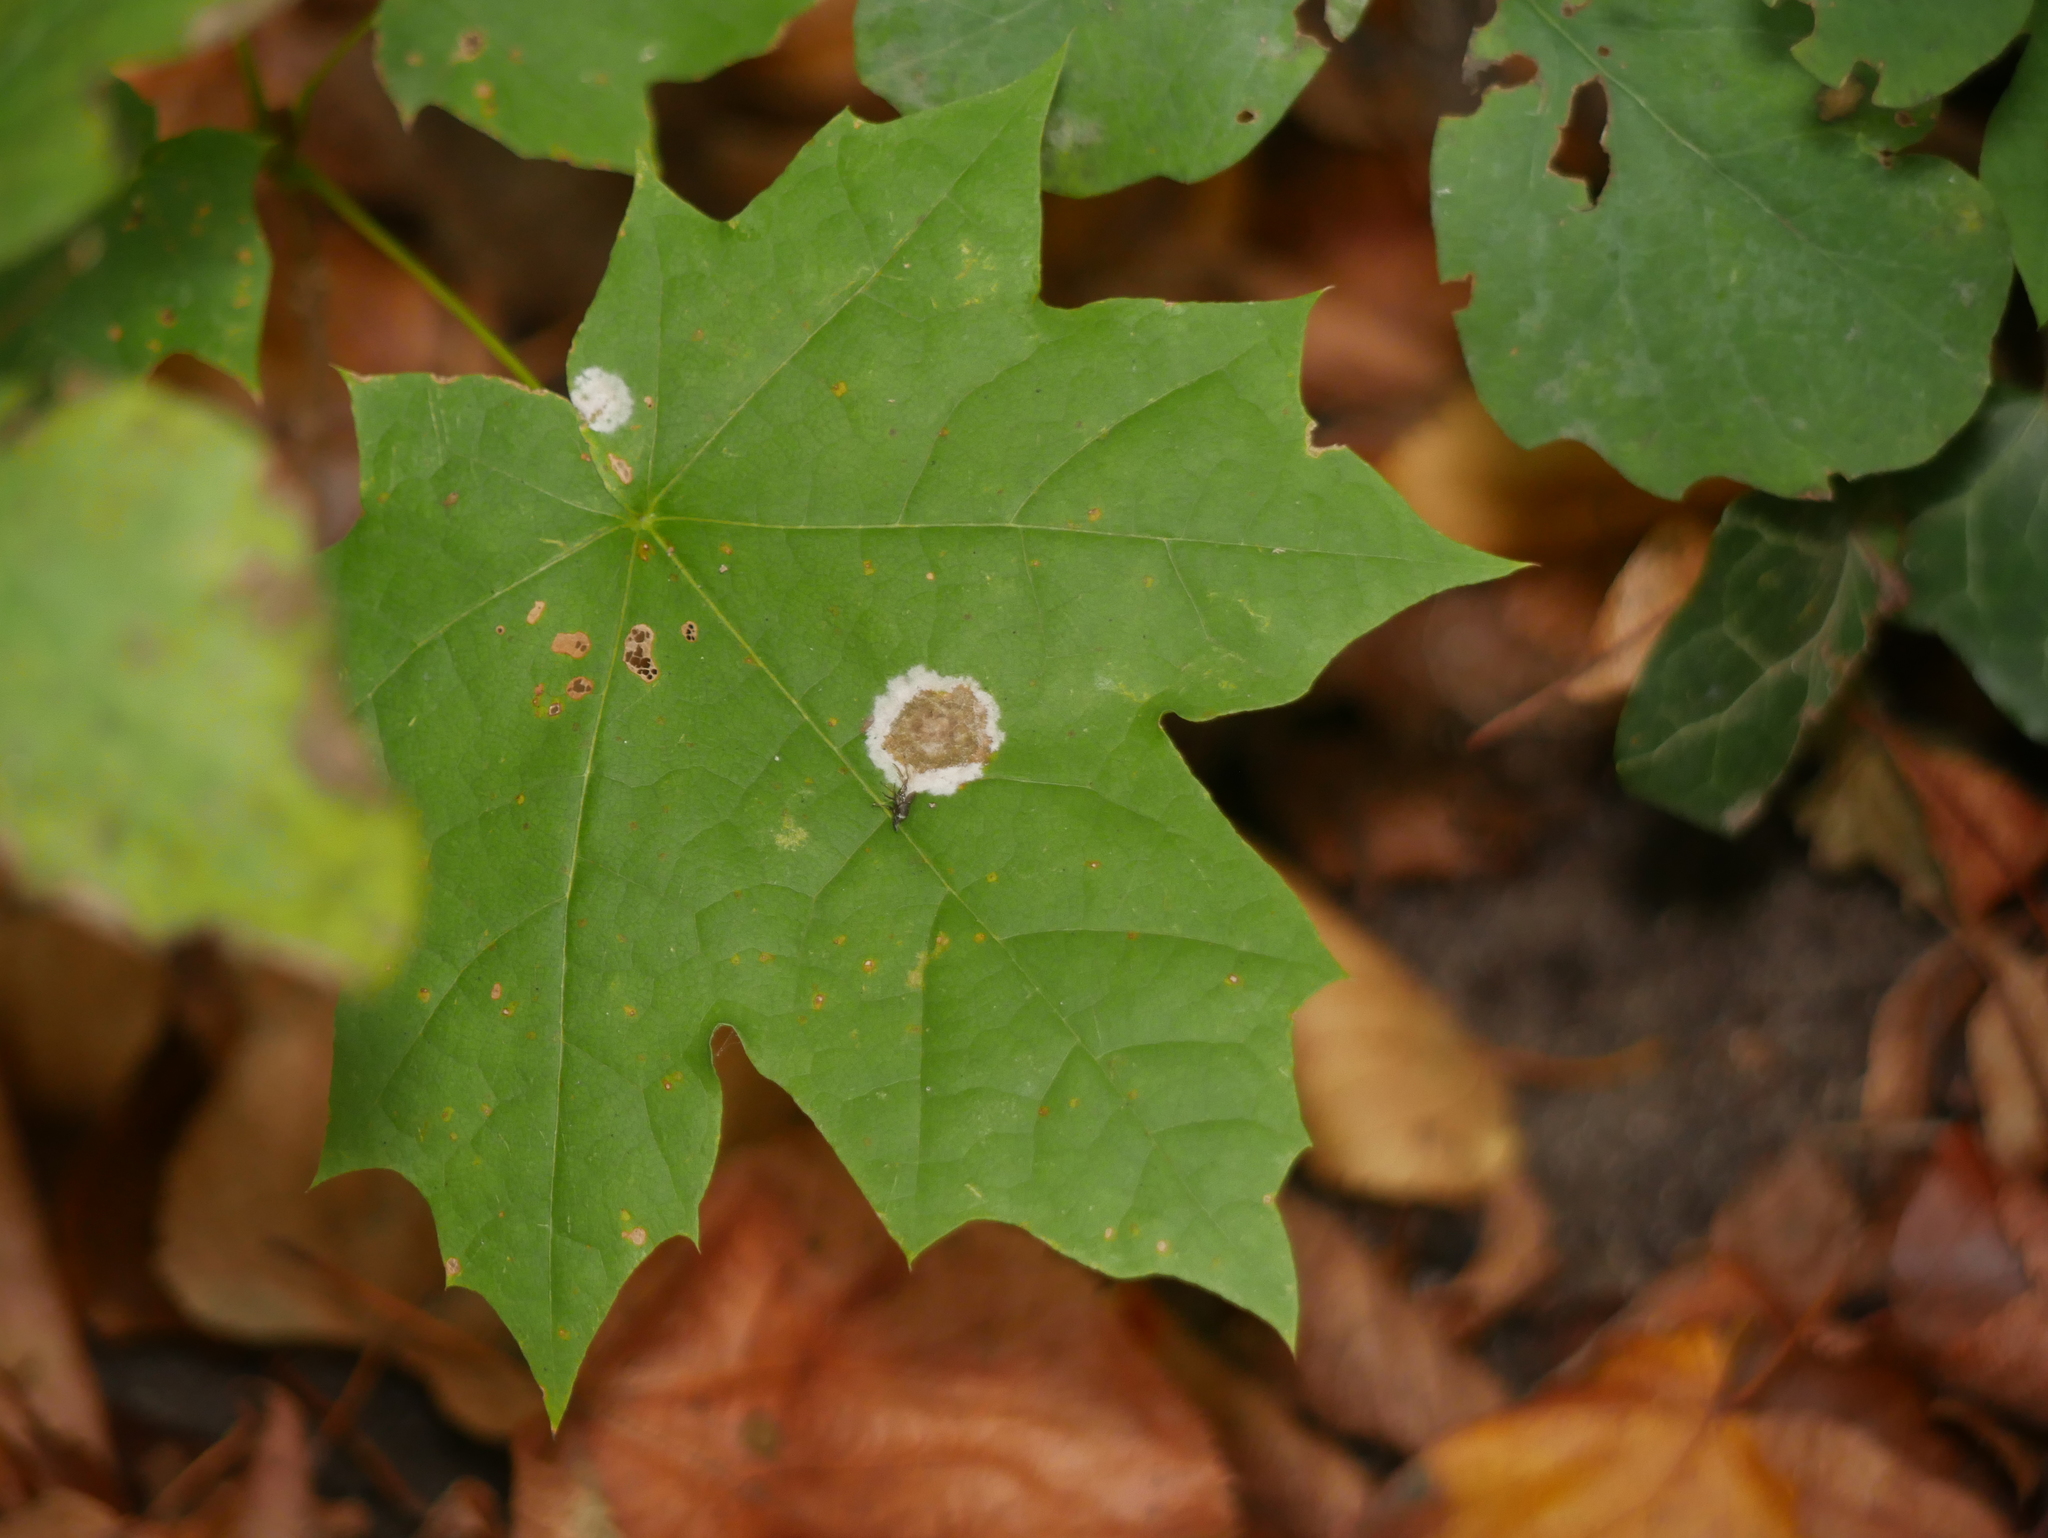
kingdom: Plantae
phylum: Tracheophyta
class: Magnoliopsida
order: Sapindales
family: Sapindaceae
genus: Acer
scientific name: Acer platanoides
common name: Norway maple
